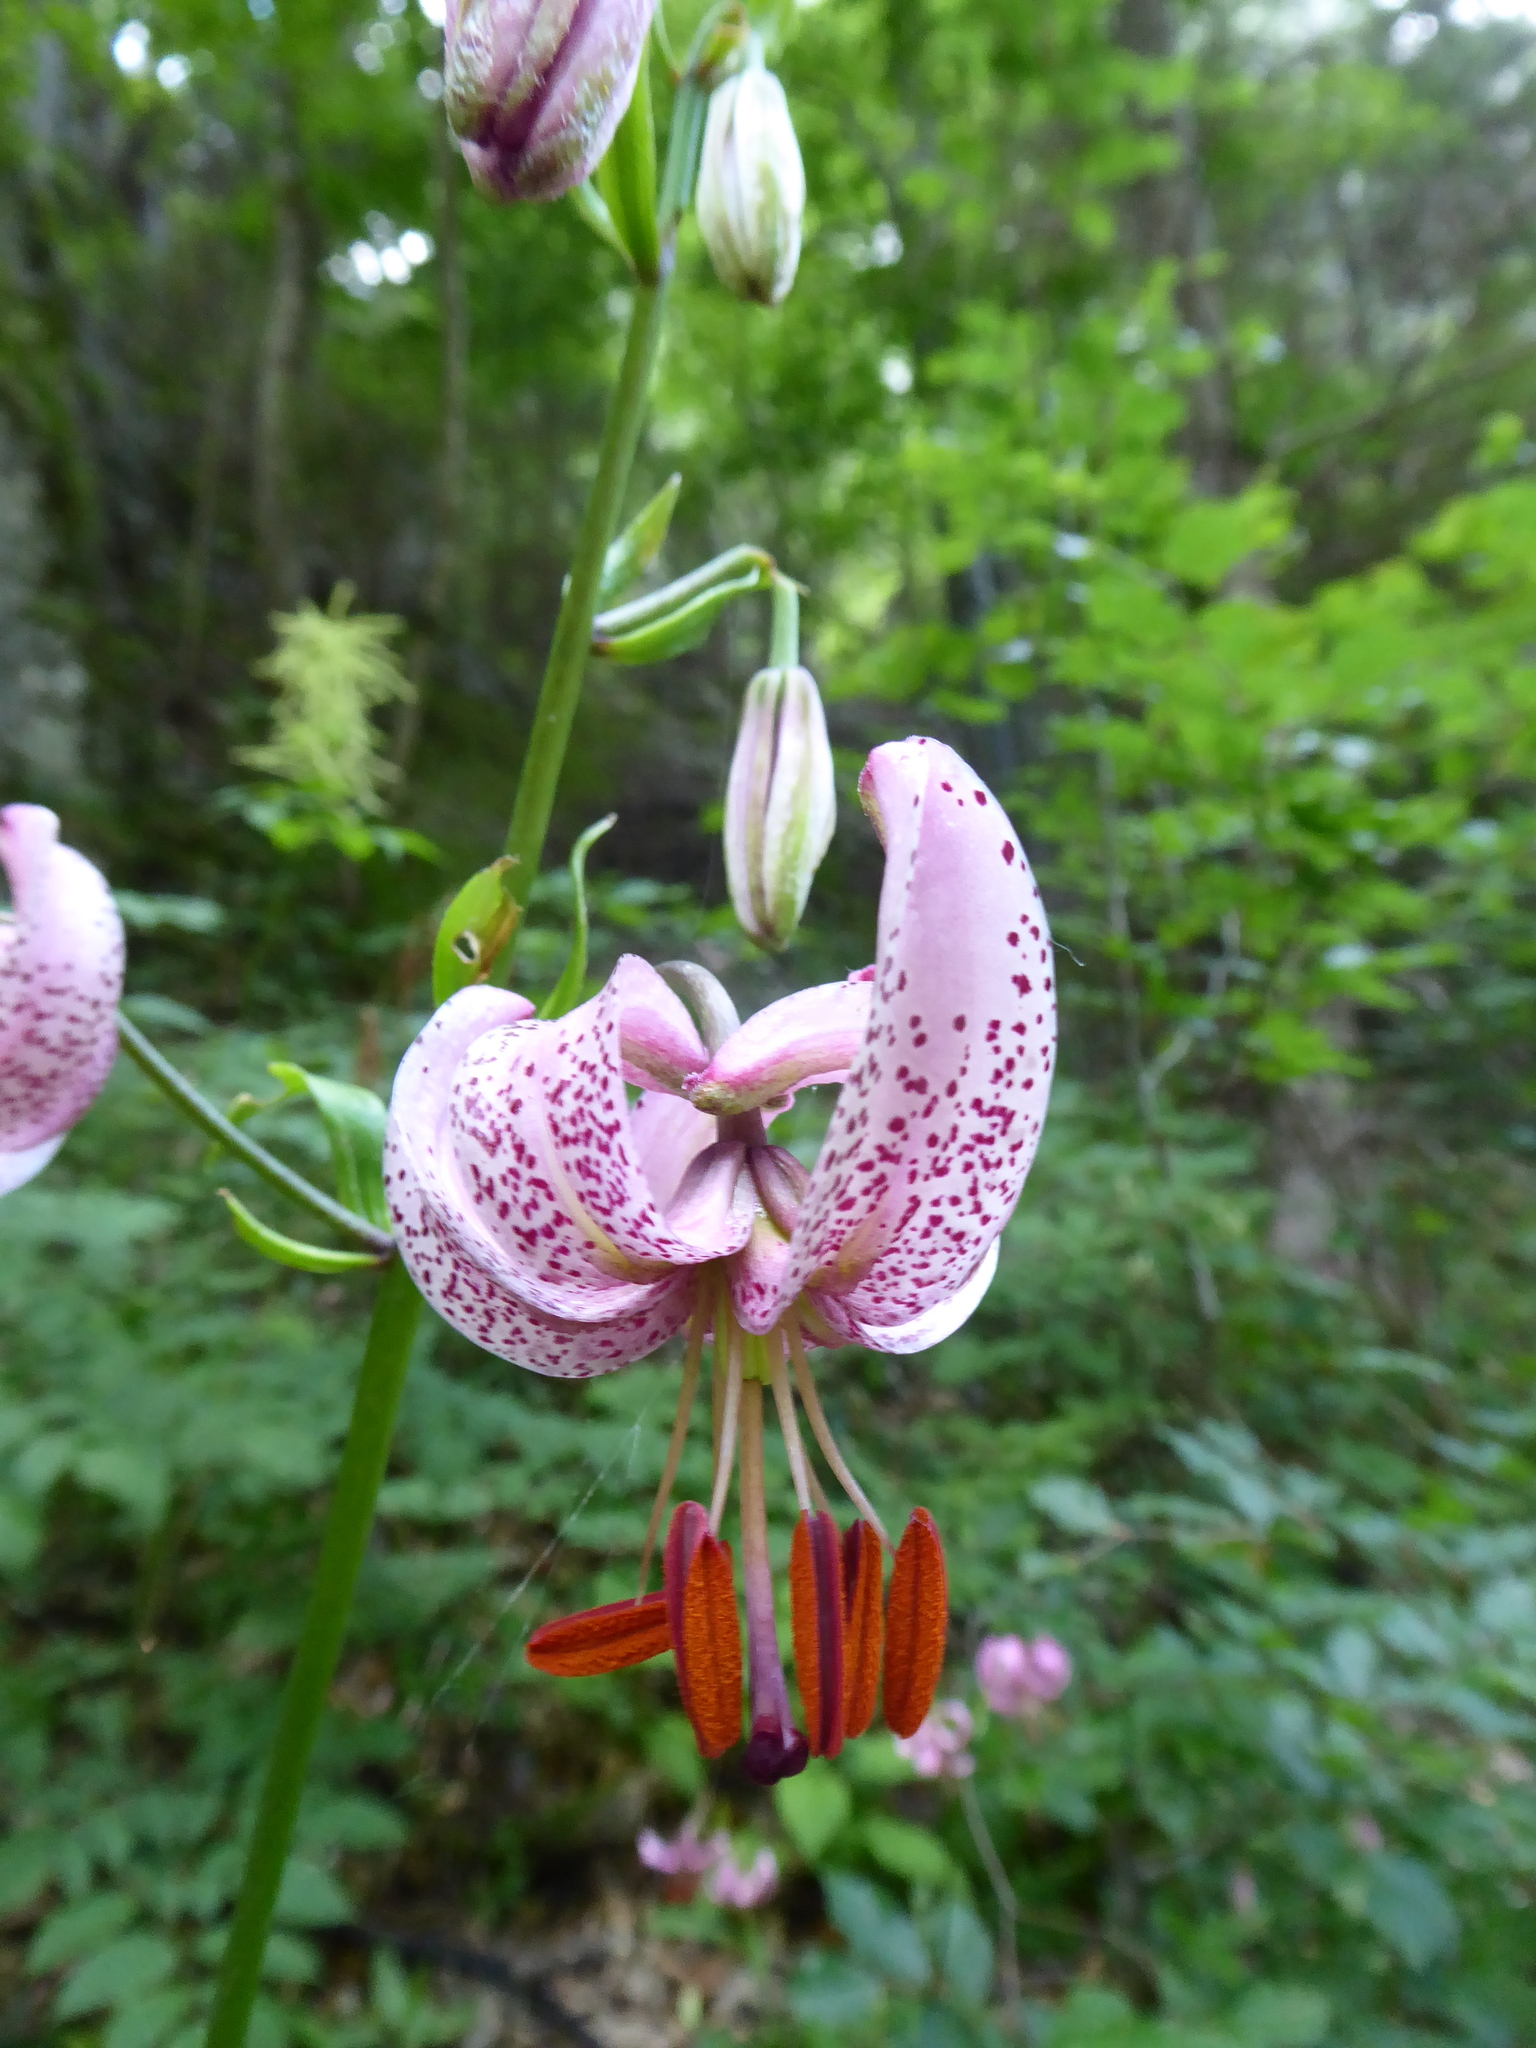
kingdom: Plantae
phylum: Tracheophyta
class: Liliopsida
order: Liliales
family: Liliaceae
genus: Lilium
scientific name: Lilium martagon
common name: Martagon lily
